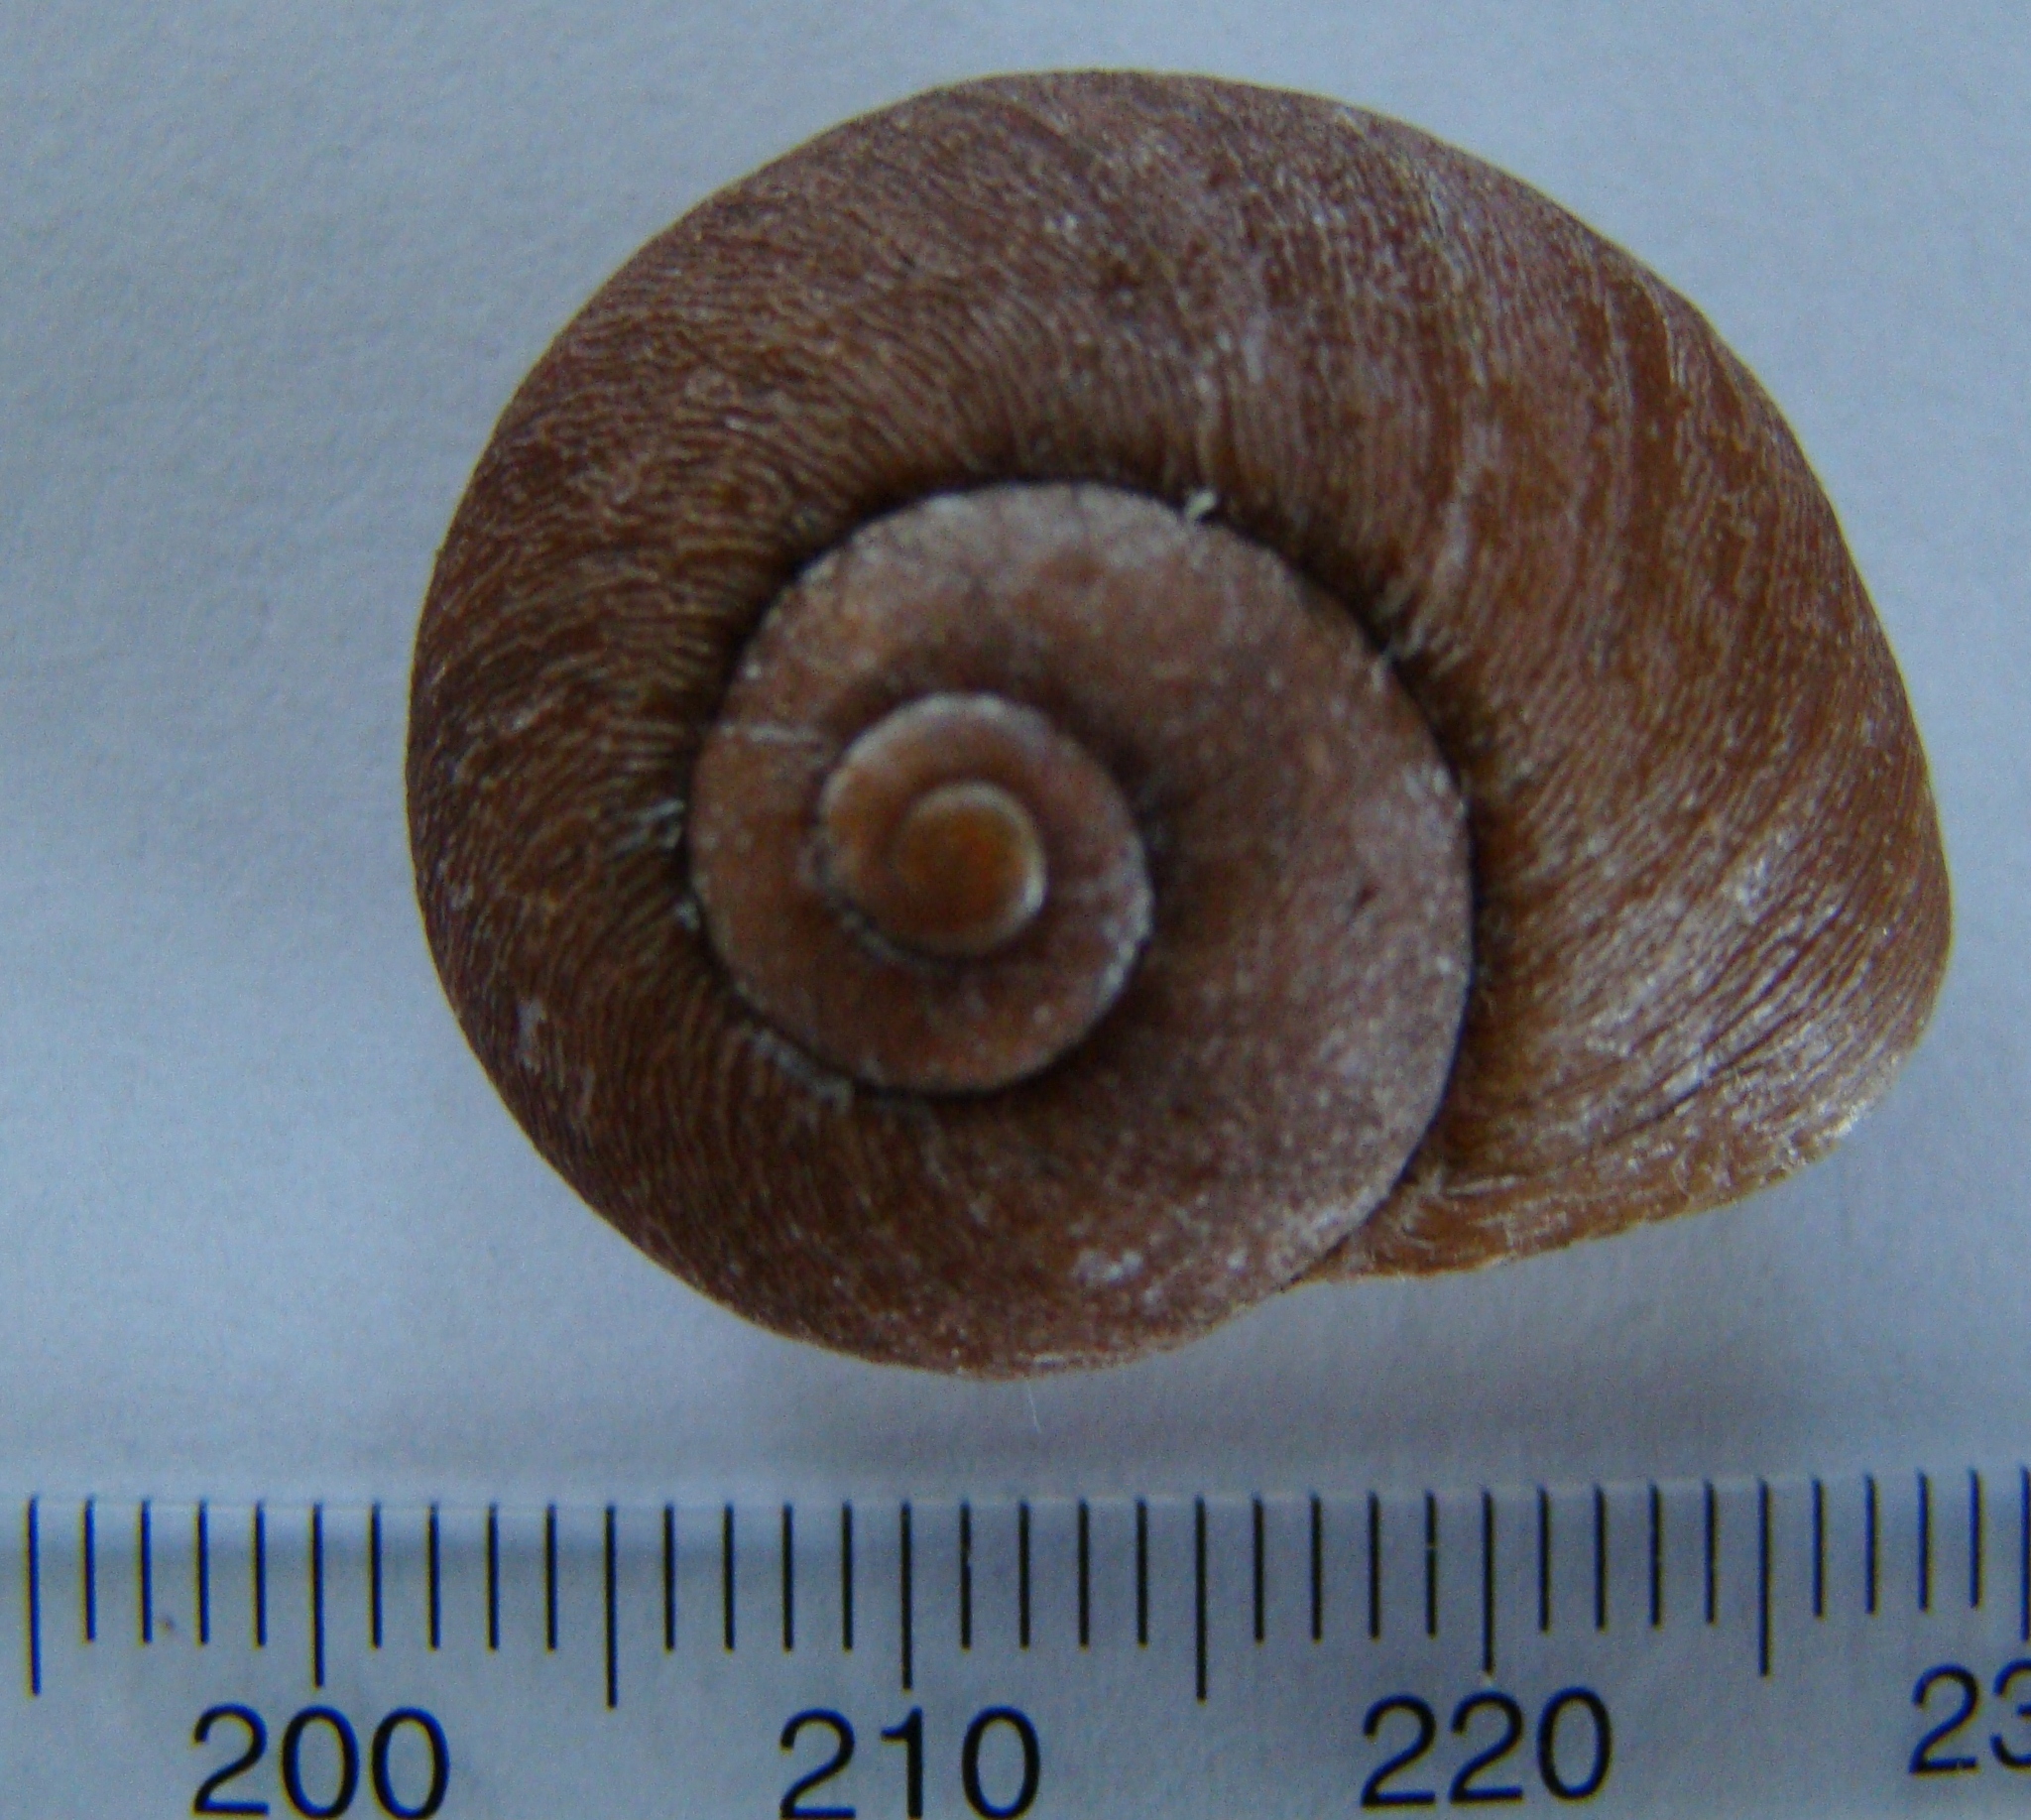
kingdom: Animalia
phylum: Mollusca
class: Gastropoda
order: Stylommatophora
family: Rhytididae
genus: Rhytida
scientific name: Rhytida greenwoodi
